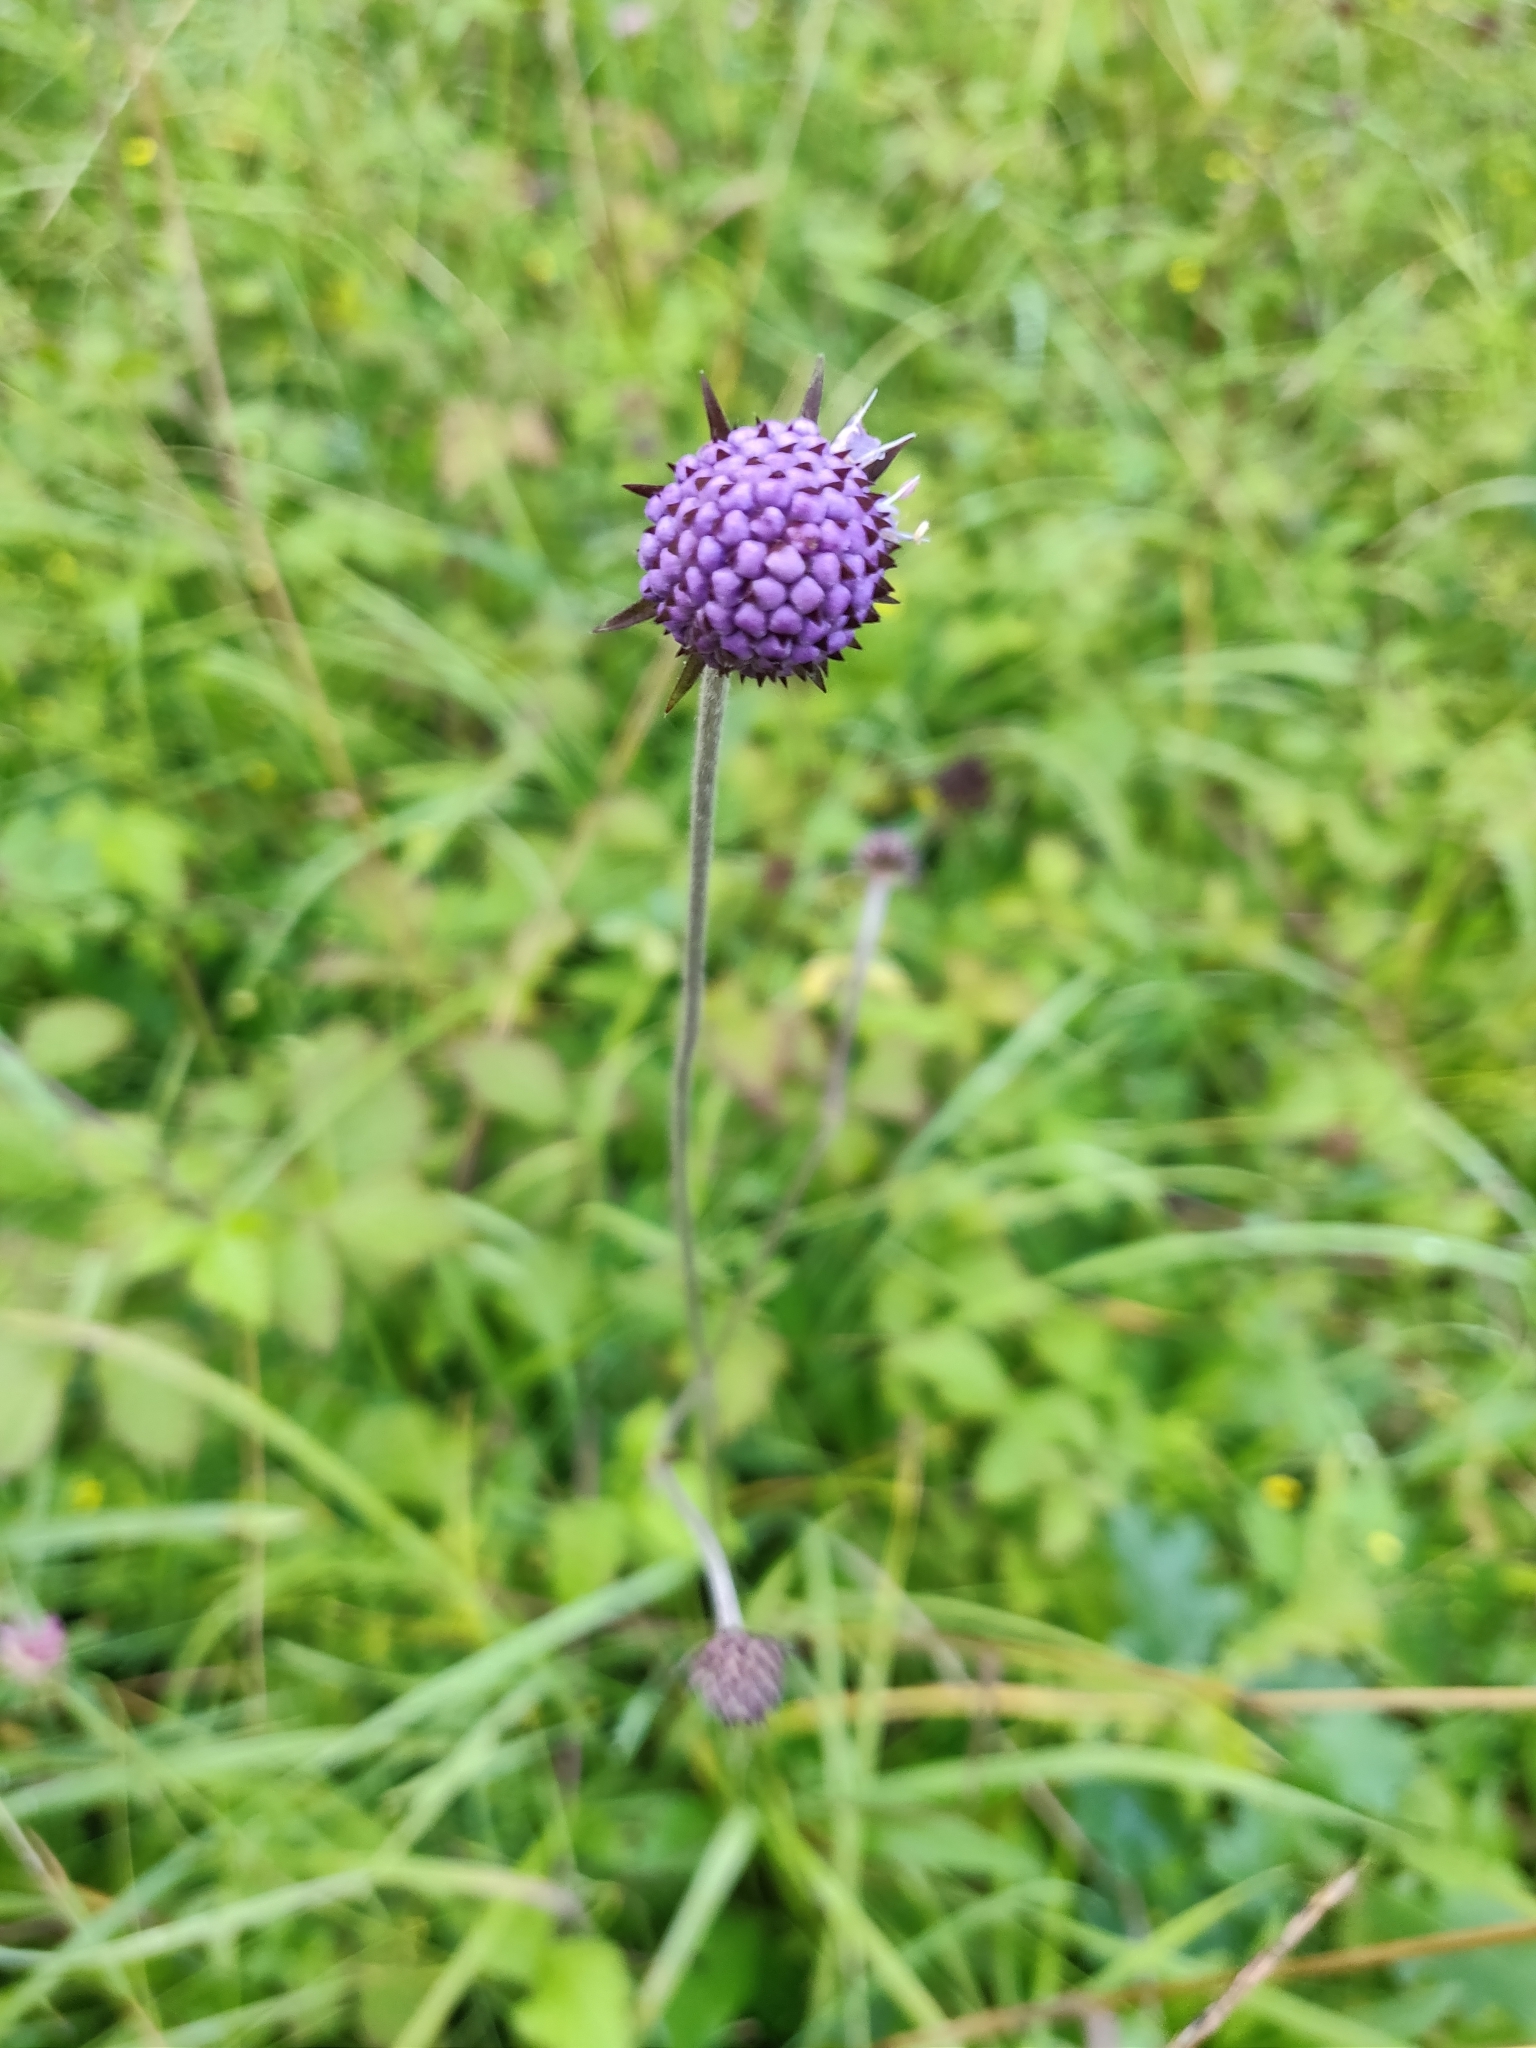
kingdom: Plantae
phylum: Tracheophyta
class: Magnoliopsida
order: Dipsacales
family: Caprifoliaceae
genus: Succisa
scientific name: Succisa pratensis
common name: Devil's-bit
